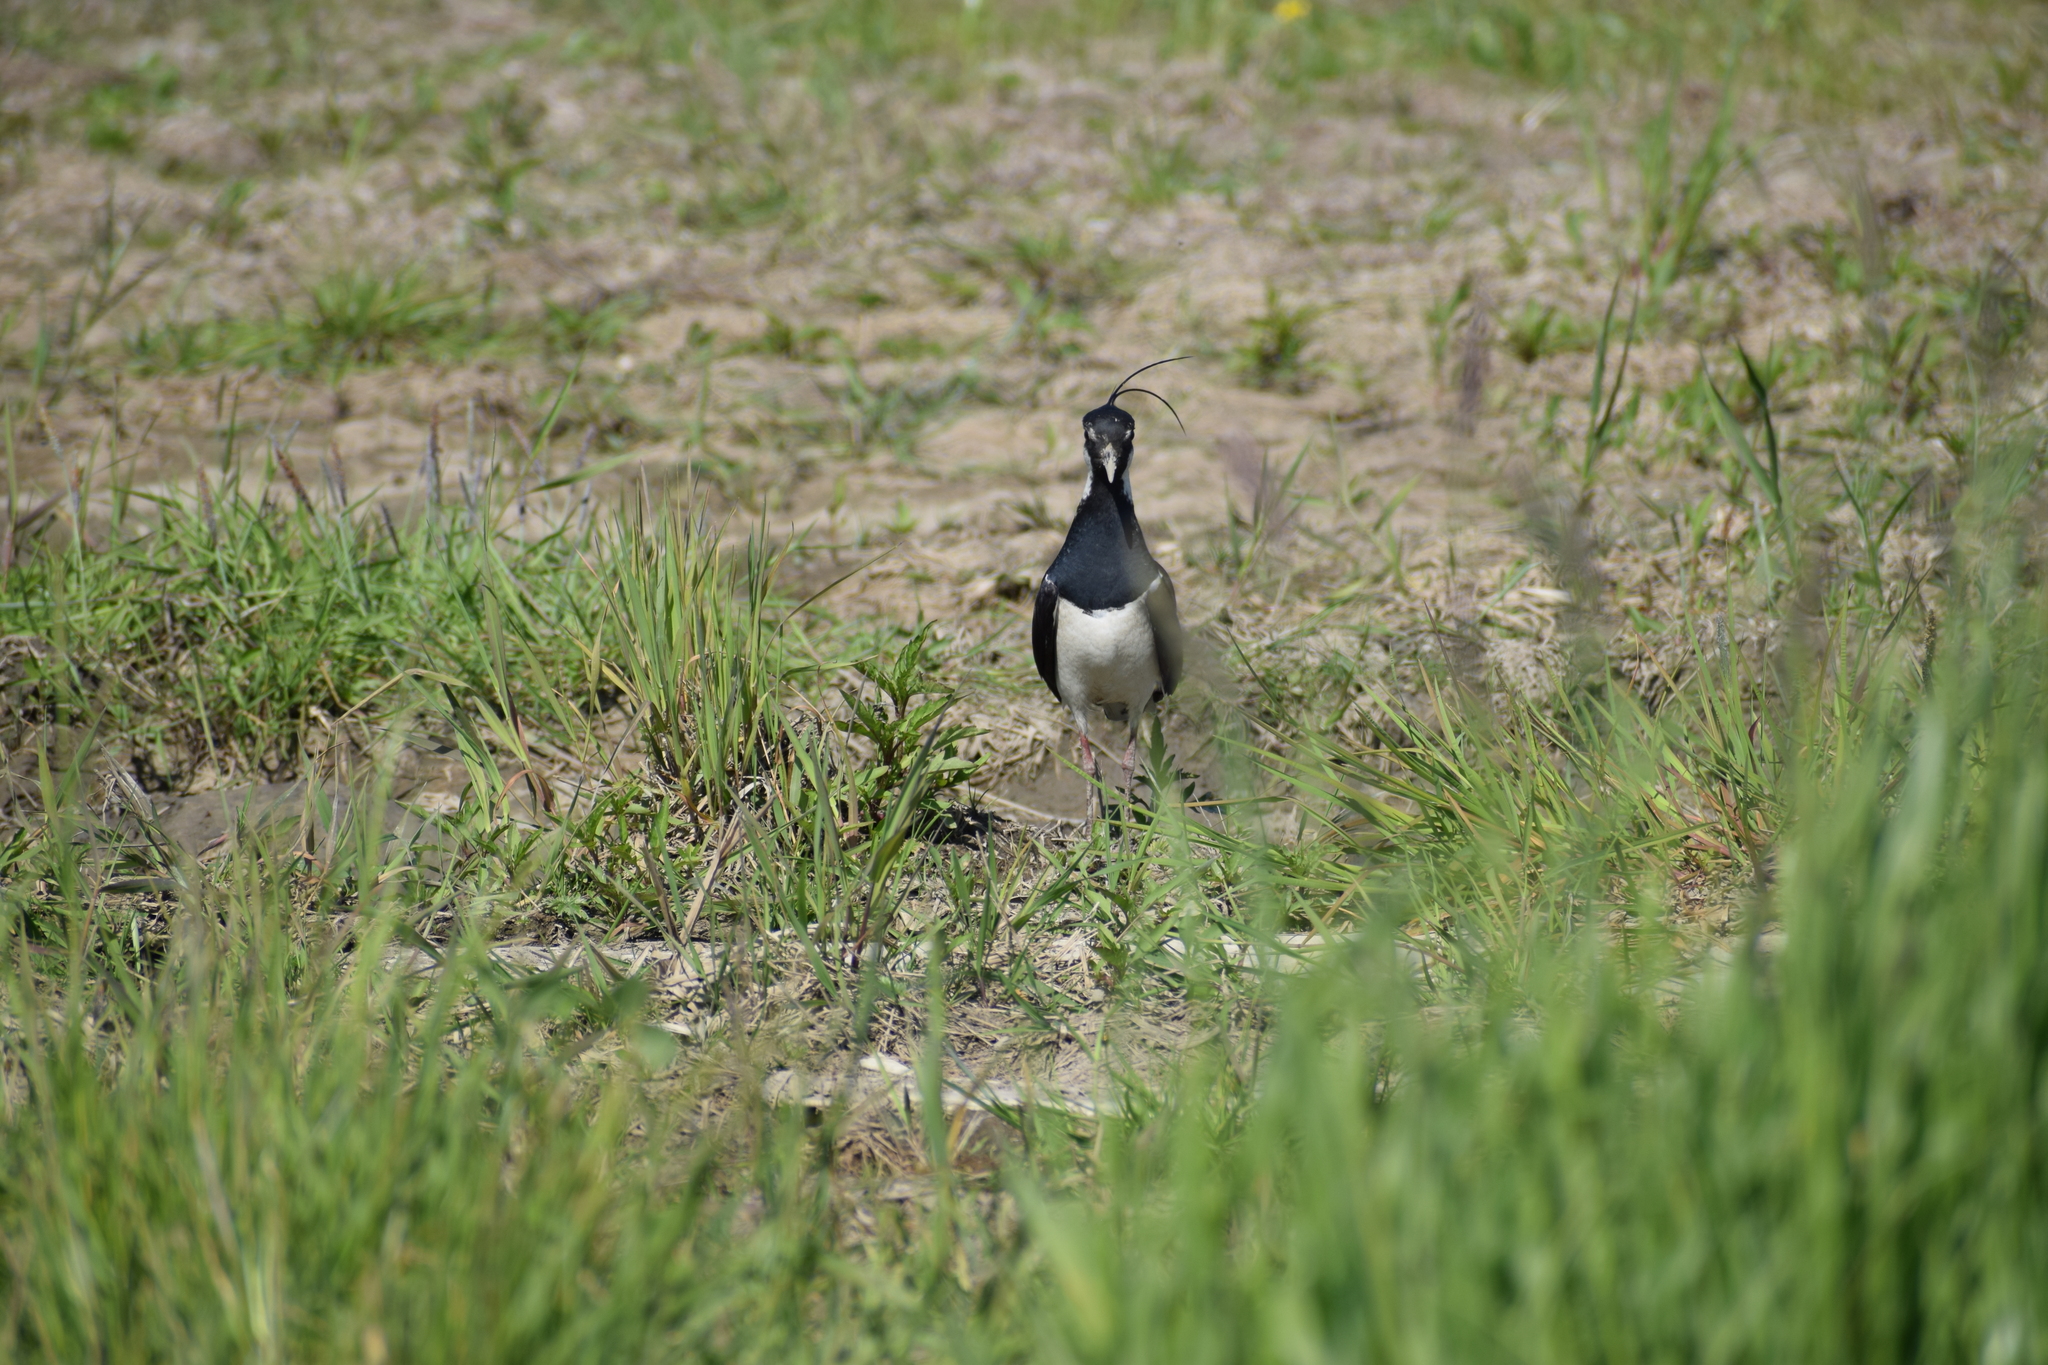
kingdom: Animalia
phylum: Chordata
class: Aves
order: Charadriiformes
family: Charadriidae
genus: Vanellus
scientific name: Vanellus vanellus
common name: Northern lapwing
